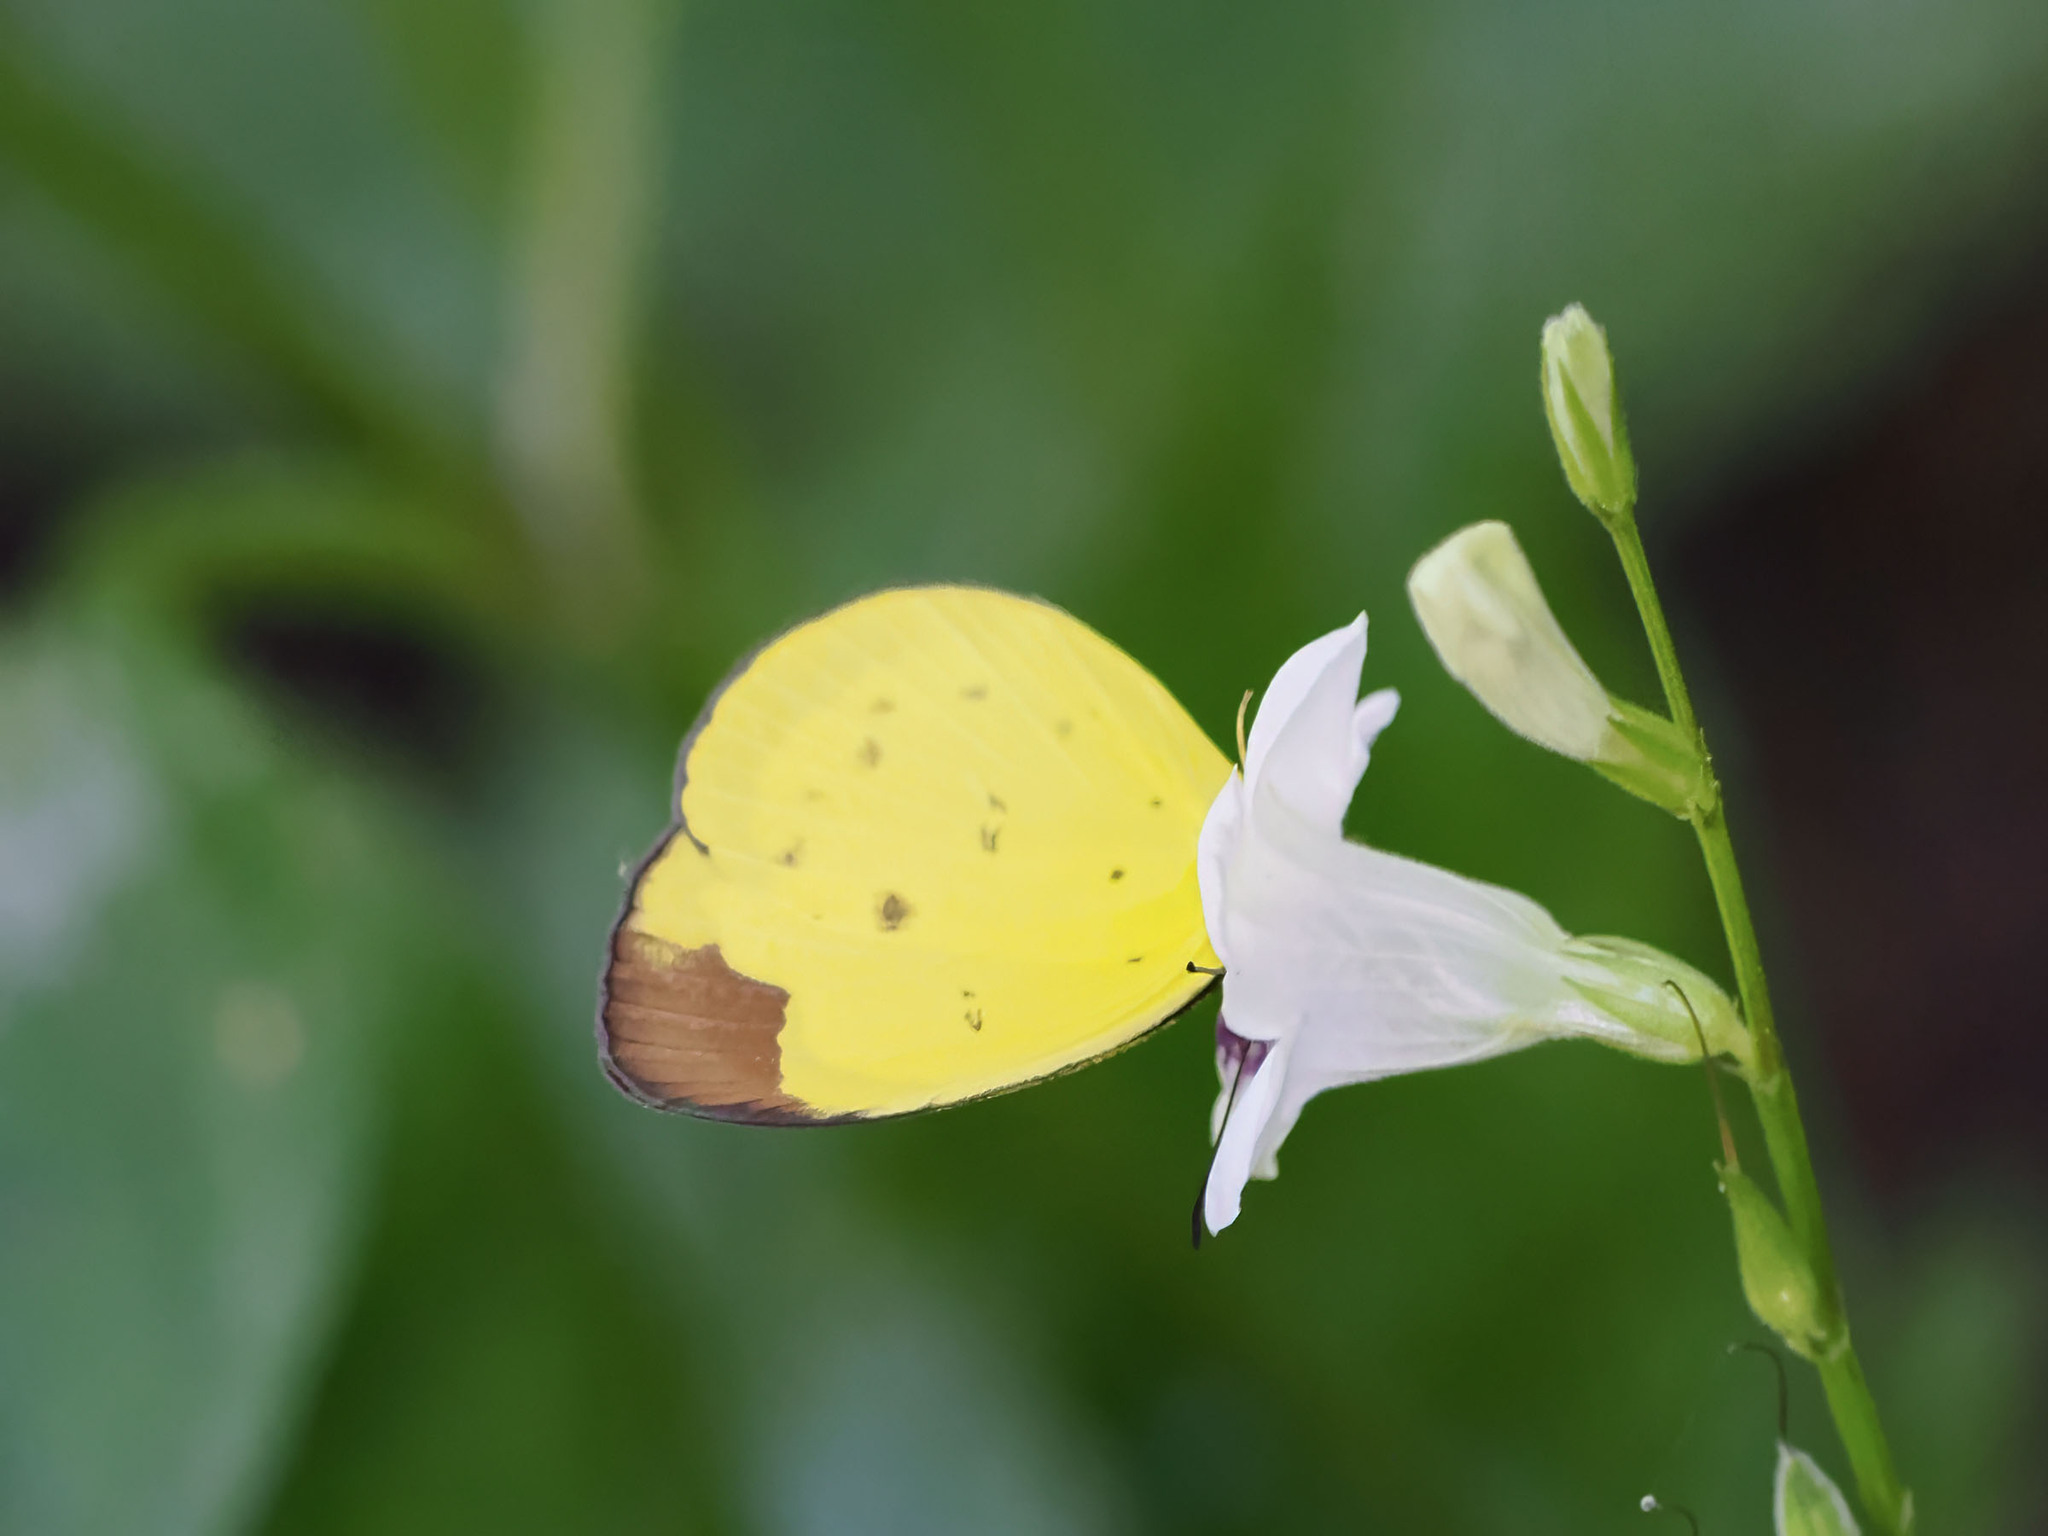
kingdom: Animalia
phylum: Arthropoda
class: Insecta
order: Lepidoptera
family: Pieridae
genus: Eurema
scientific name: Eurema sarilata
